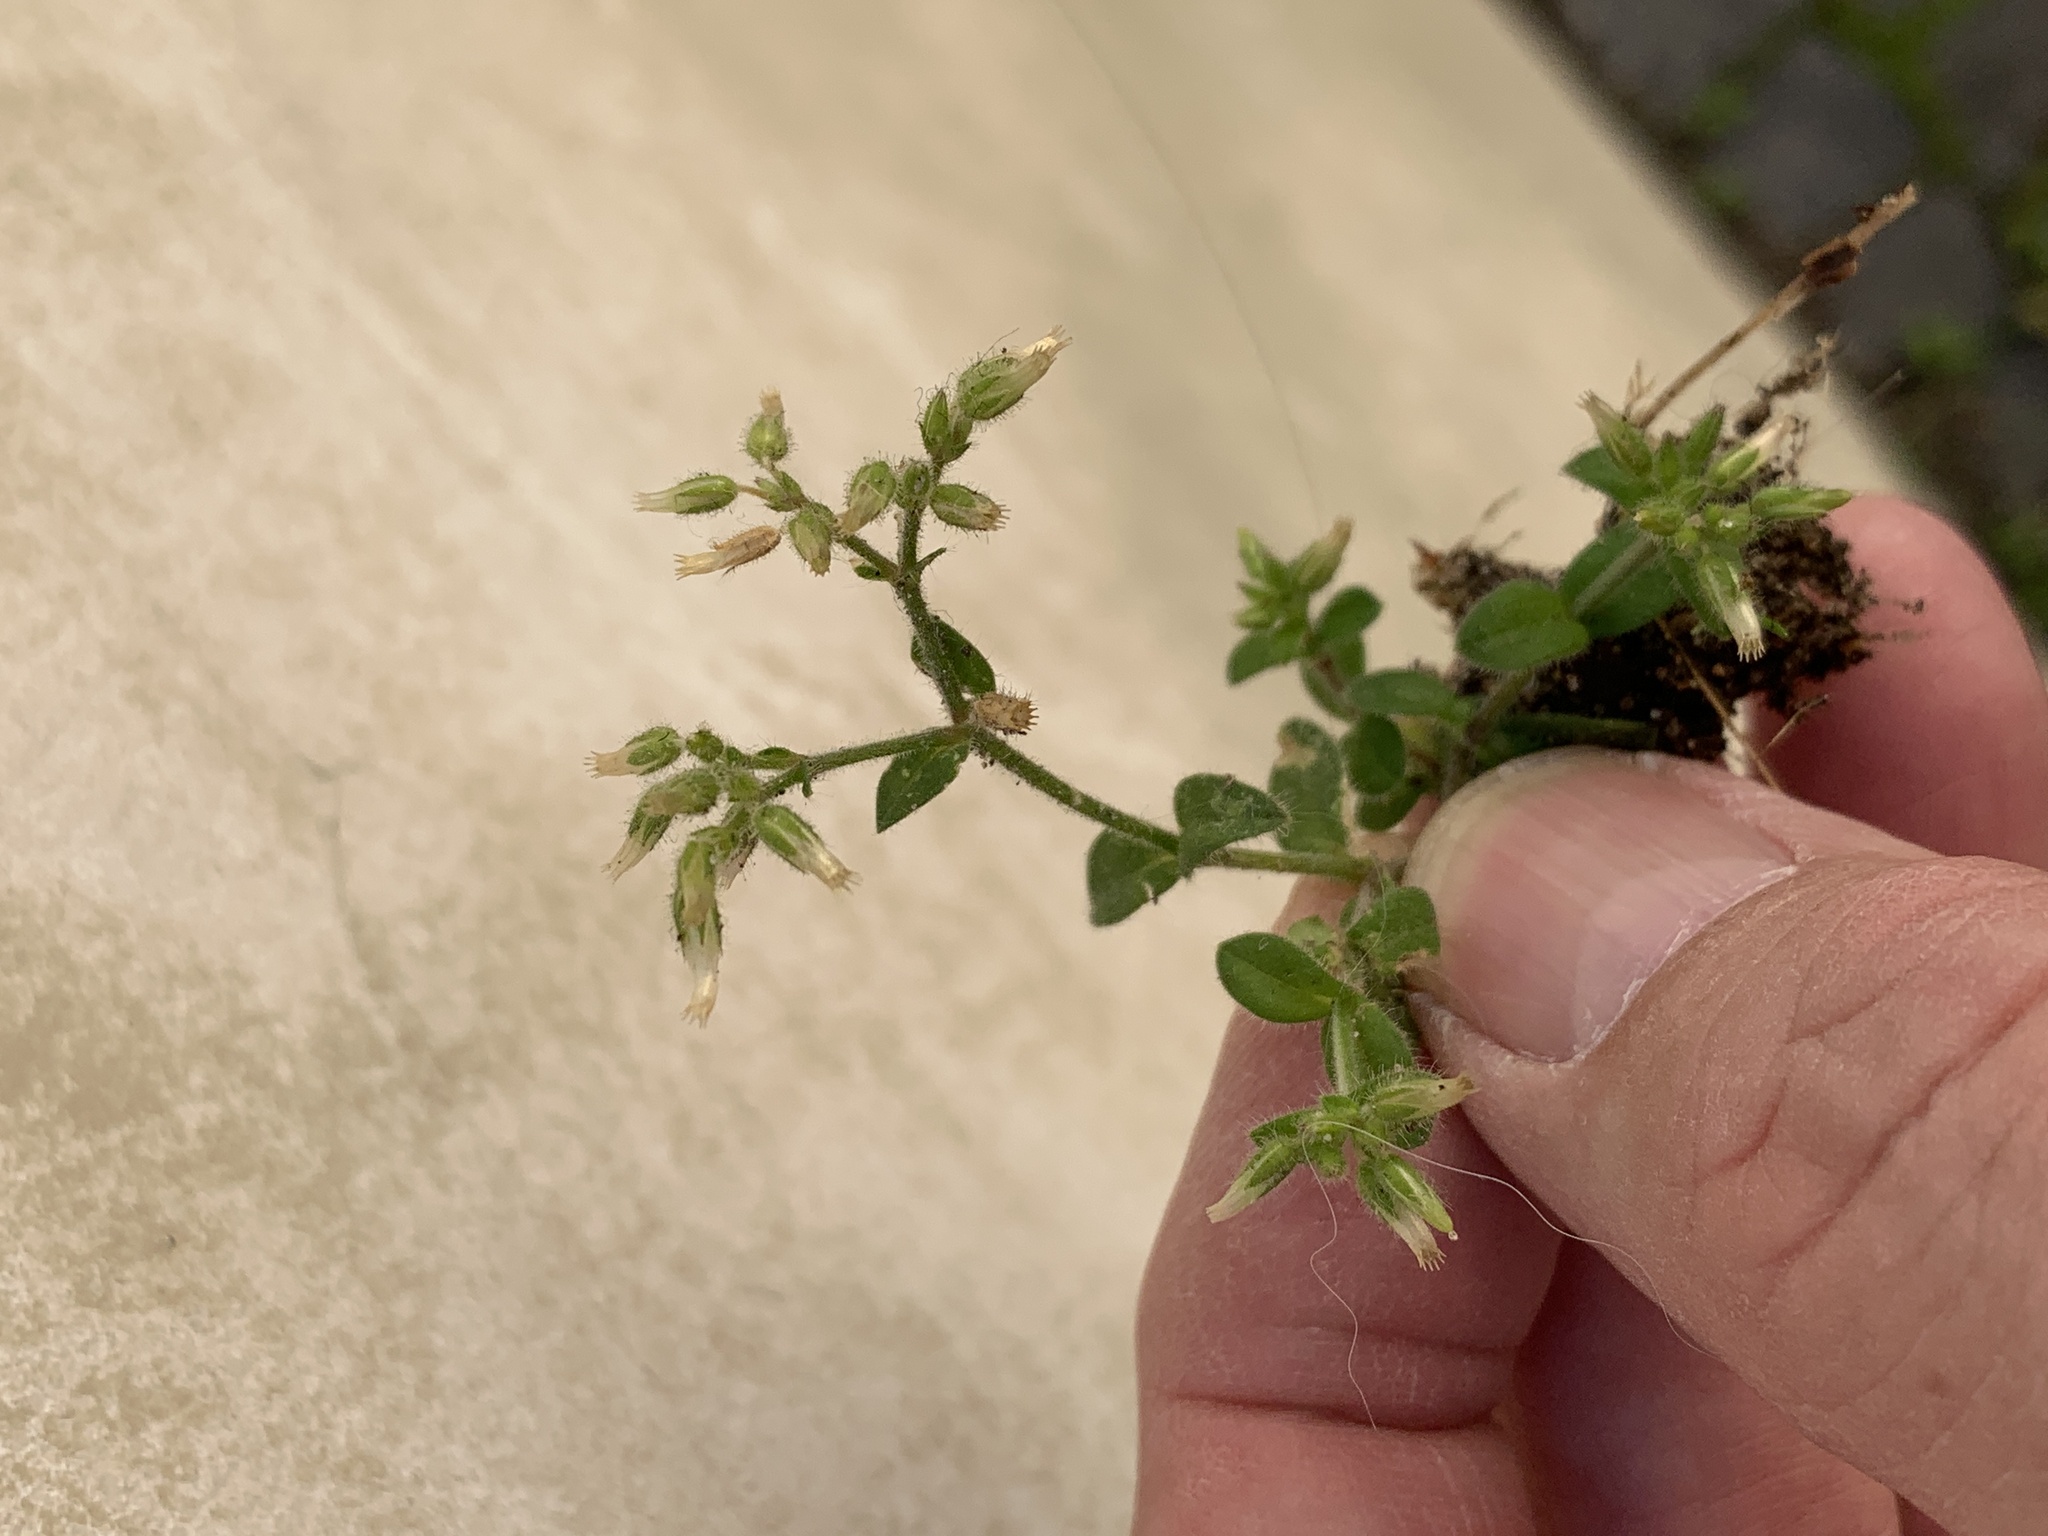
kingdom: Plantae
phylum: Tracheophyta
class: Magnoliopsida
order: Caryophyllales
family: Caryophyllaceae
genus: Cerastium
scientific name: Cerastium glomeratum
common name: Sticky chickweed
